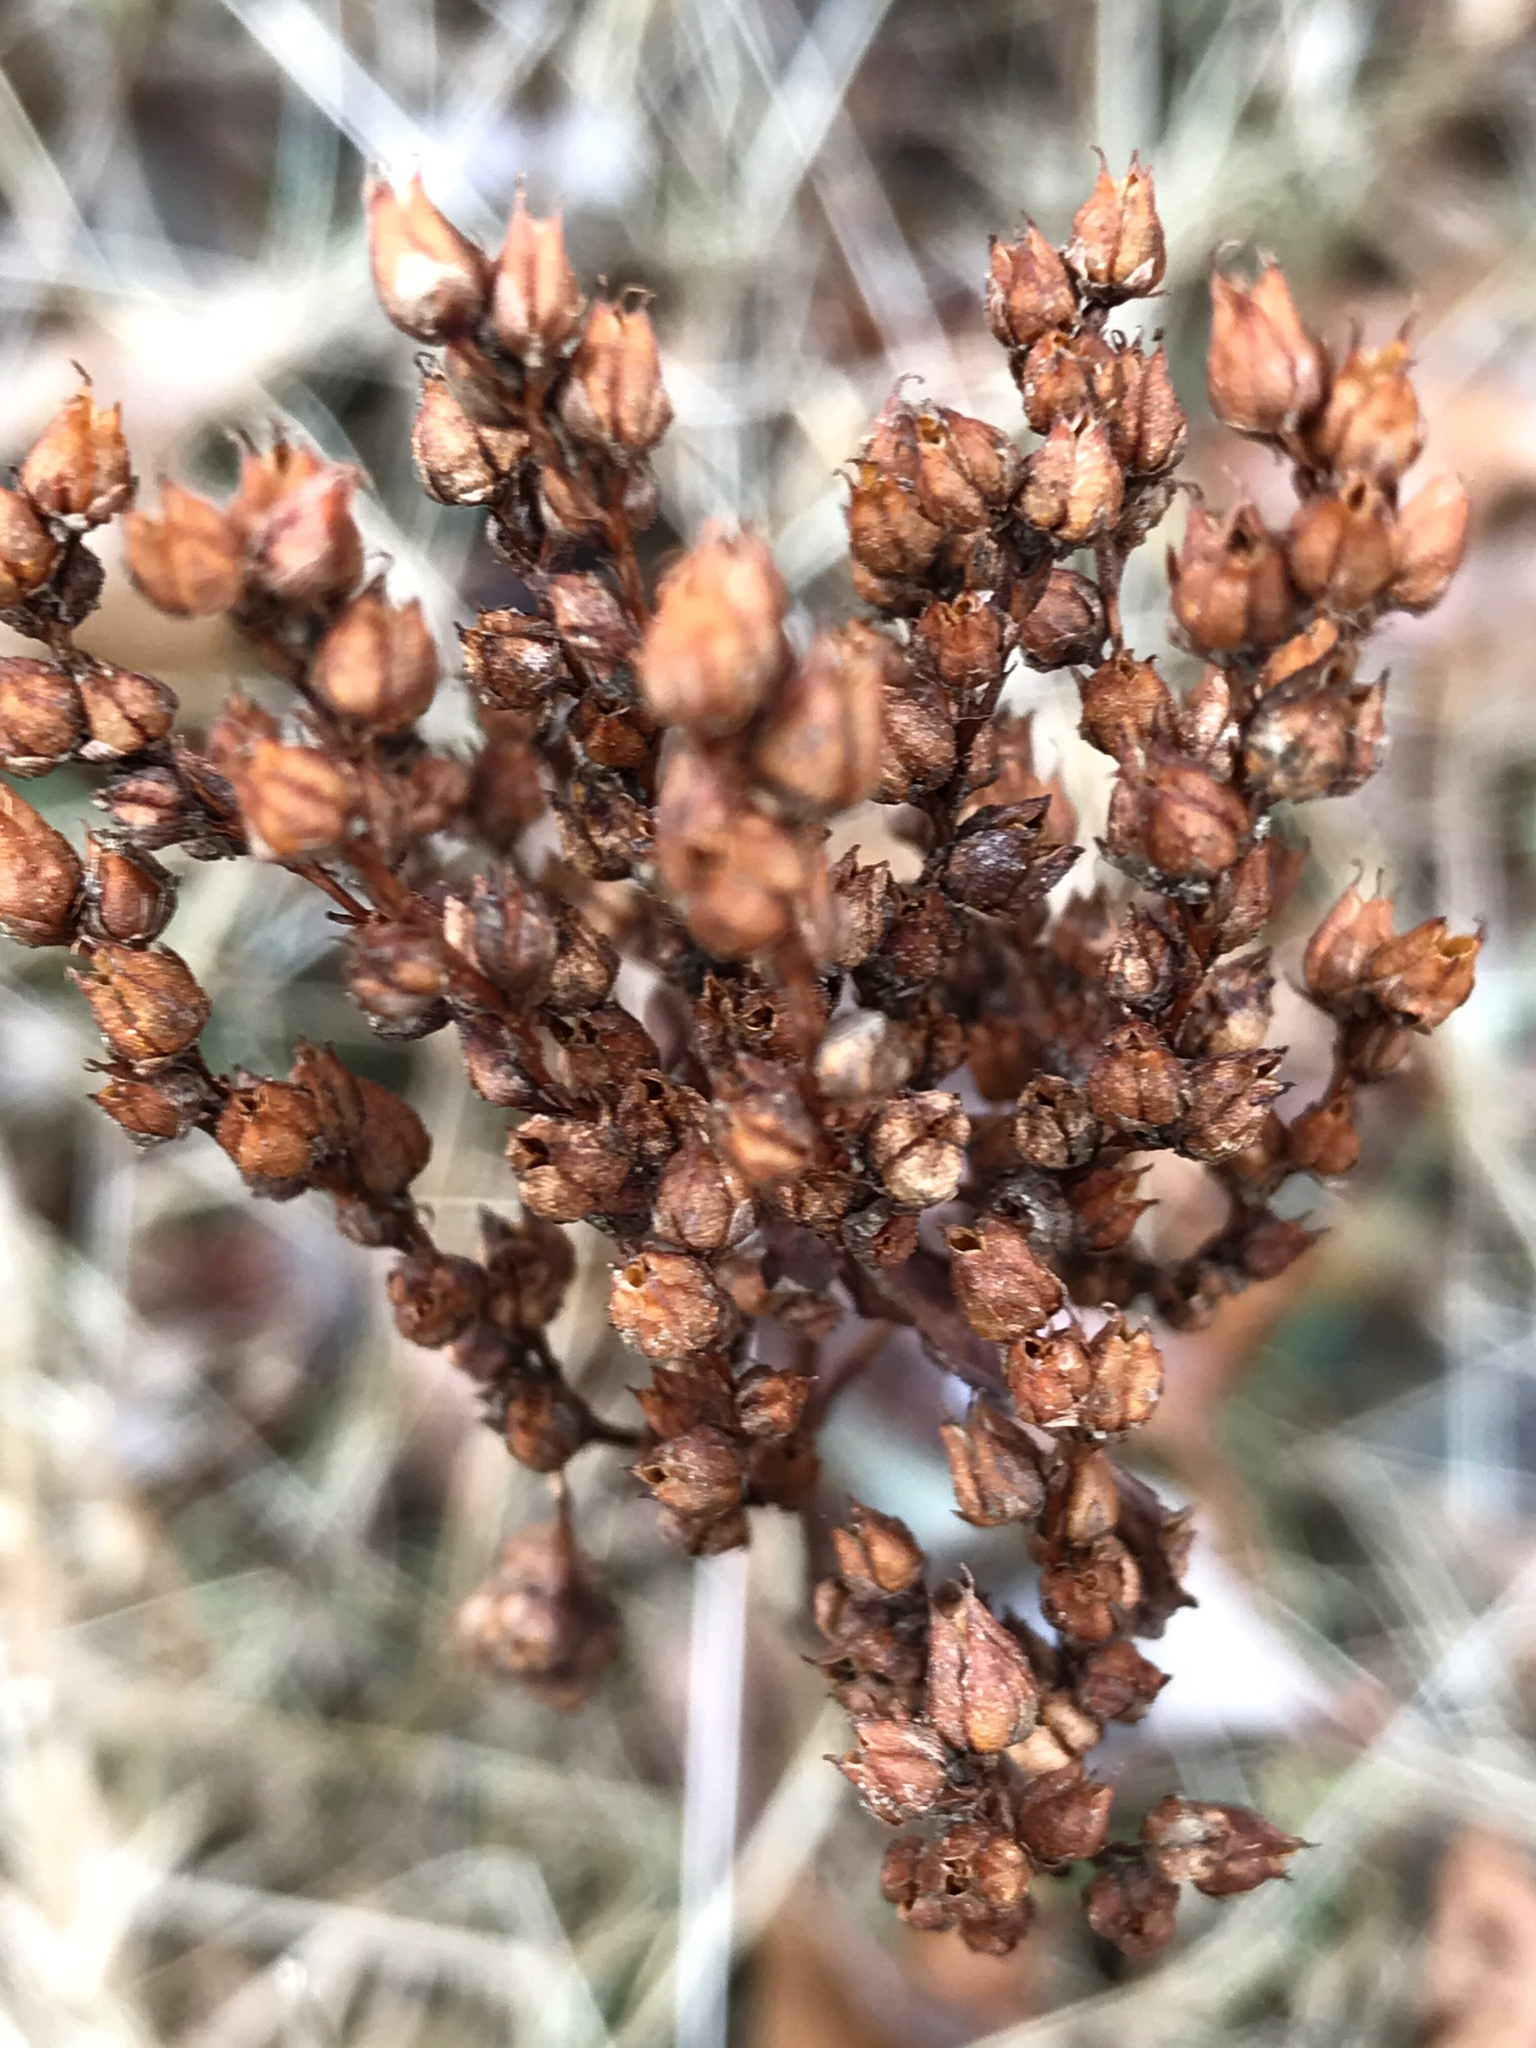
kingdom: Plantae
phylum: Tracheophyta
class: Magnoliopsida
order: Malpighiales
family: Hypericaceae
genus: Hypericum
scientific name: Hypericum perforatum
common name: Common st. johnswort
